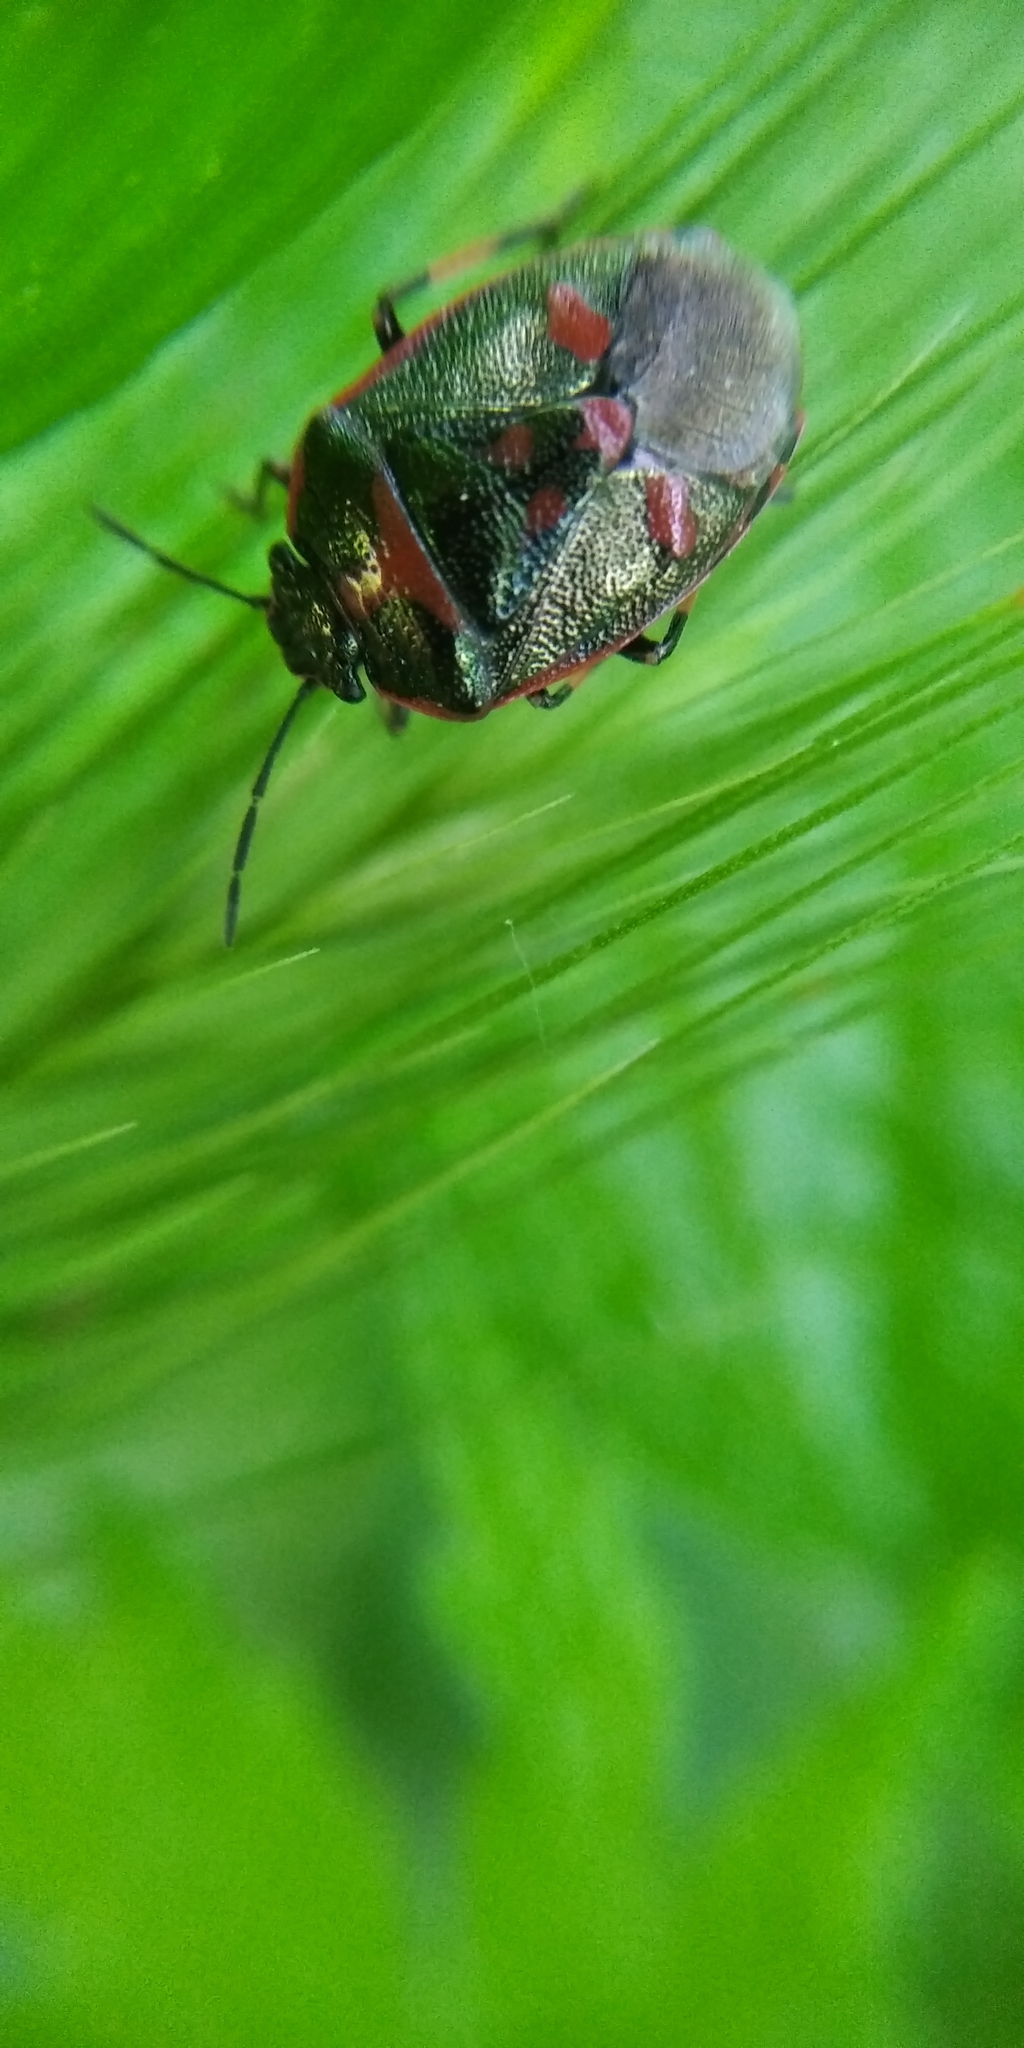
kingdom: Animalia
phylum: Arthropoda
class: Insecta
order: Hemiptera
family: Pentatomidae
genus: Eurydema
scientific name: Eurydema oleracea
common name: Cabbage bug
